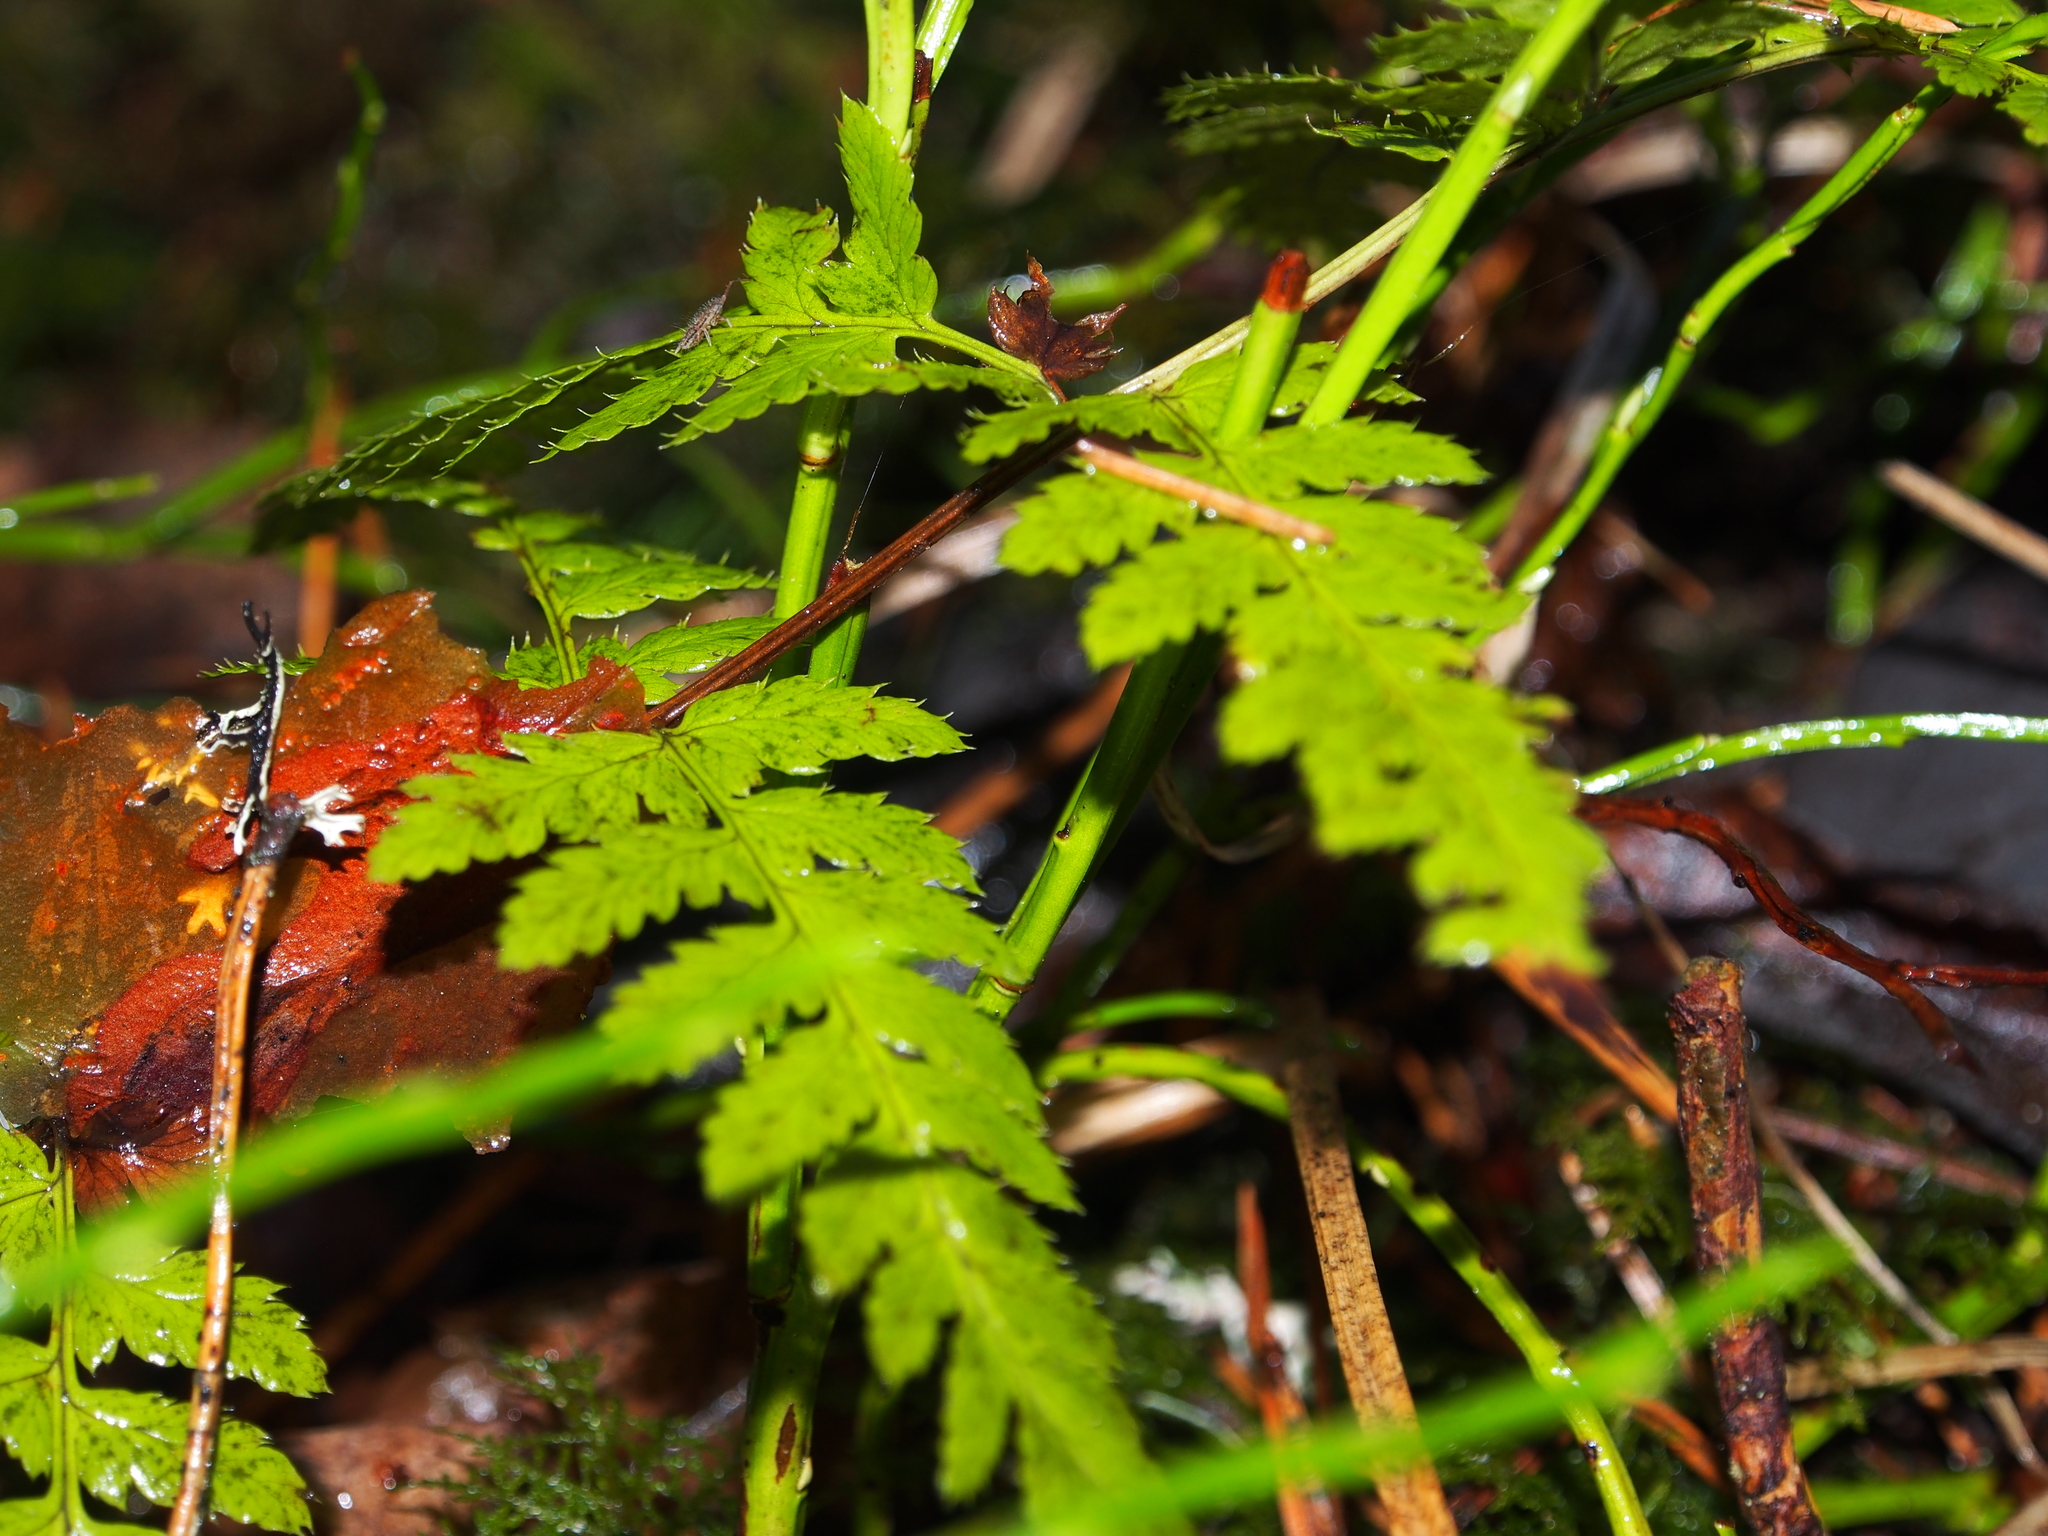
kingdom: Plantae
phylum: Tracheophyta
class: Polypodiopsida
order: Polypodiales
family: Dryopteridaceae
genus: Dryopteris
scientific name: Dryopteris carthusiana
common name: Narrow buckler-fern
